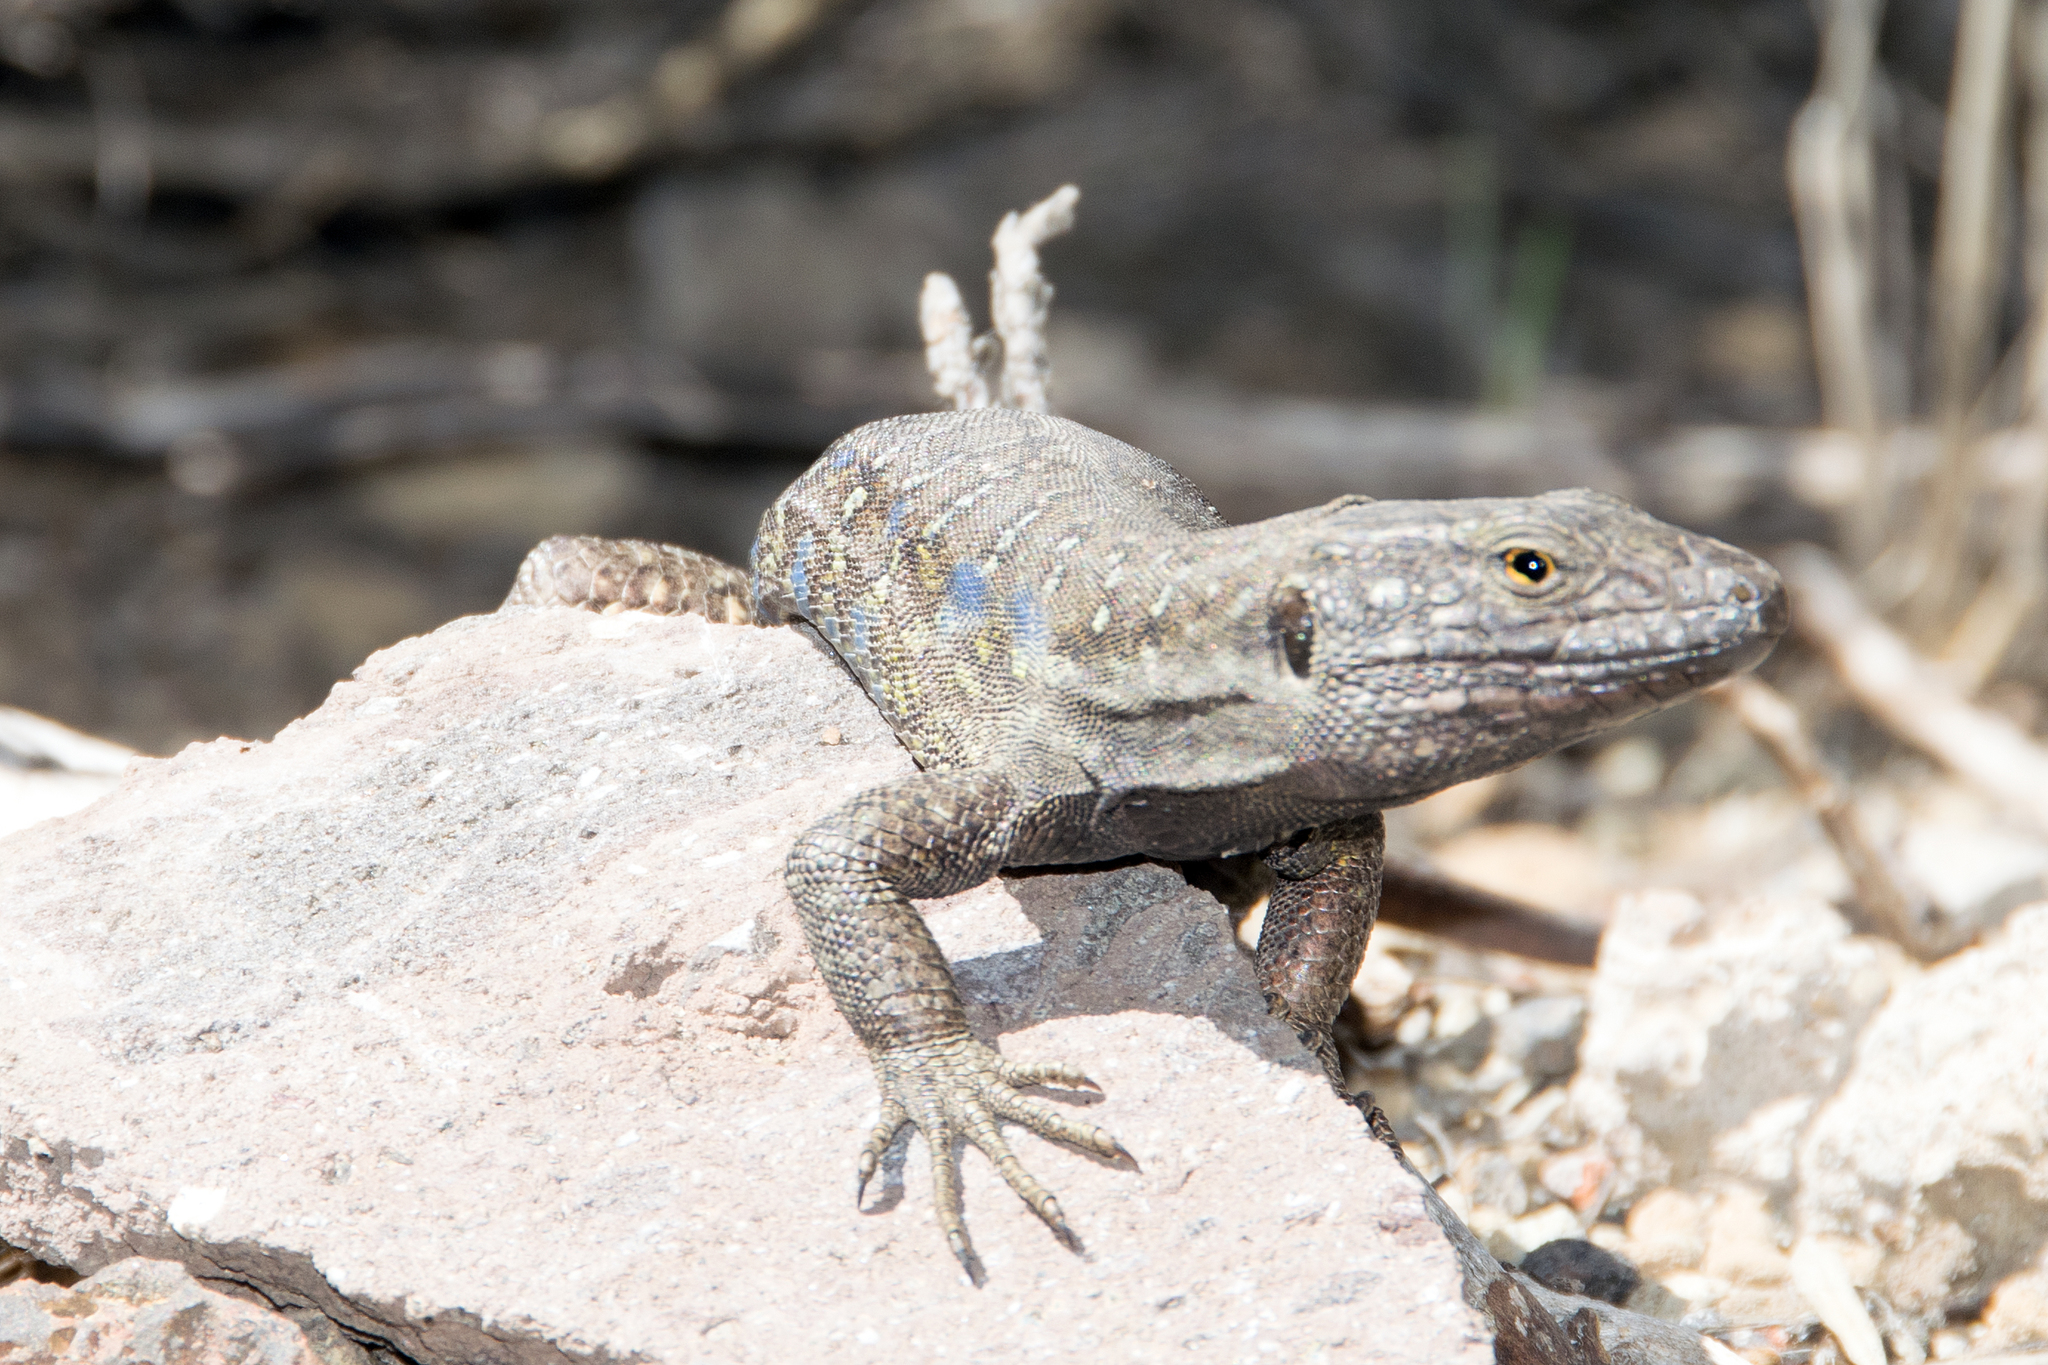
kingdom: Animalia
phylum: Chordata
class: Squamata
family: Lacertidae
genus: Gallotia
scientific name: Gallotia galloti
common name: Gallot's lizard
